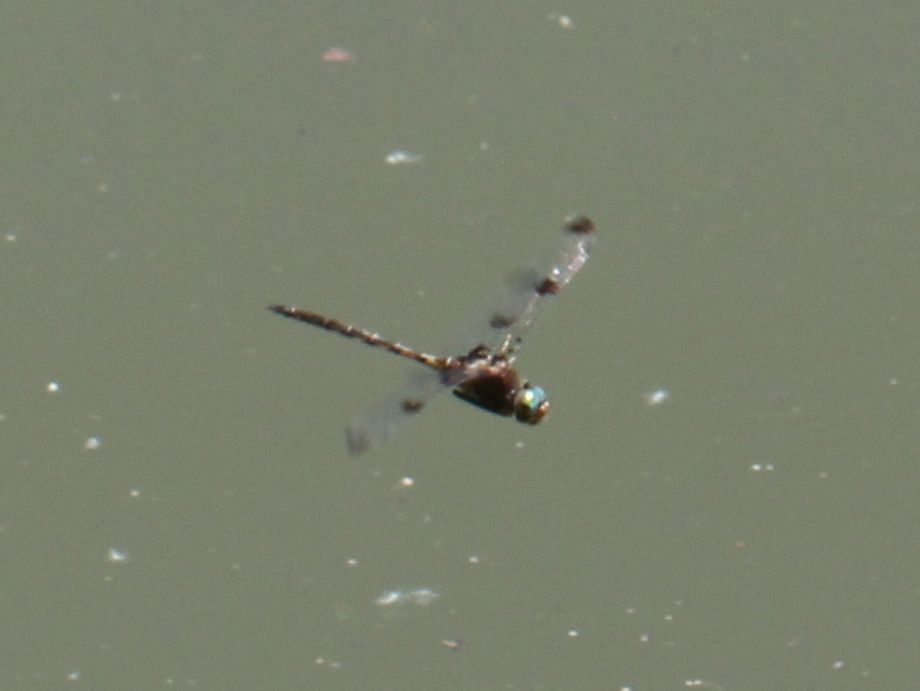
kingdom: Animalia
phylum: Arthropoda
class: Insecta
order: Odonata
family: Corduliidae
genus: Epitheca
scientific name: Epitheca princeps
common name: Prince baskettail
